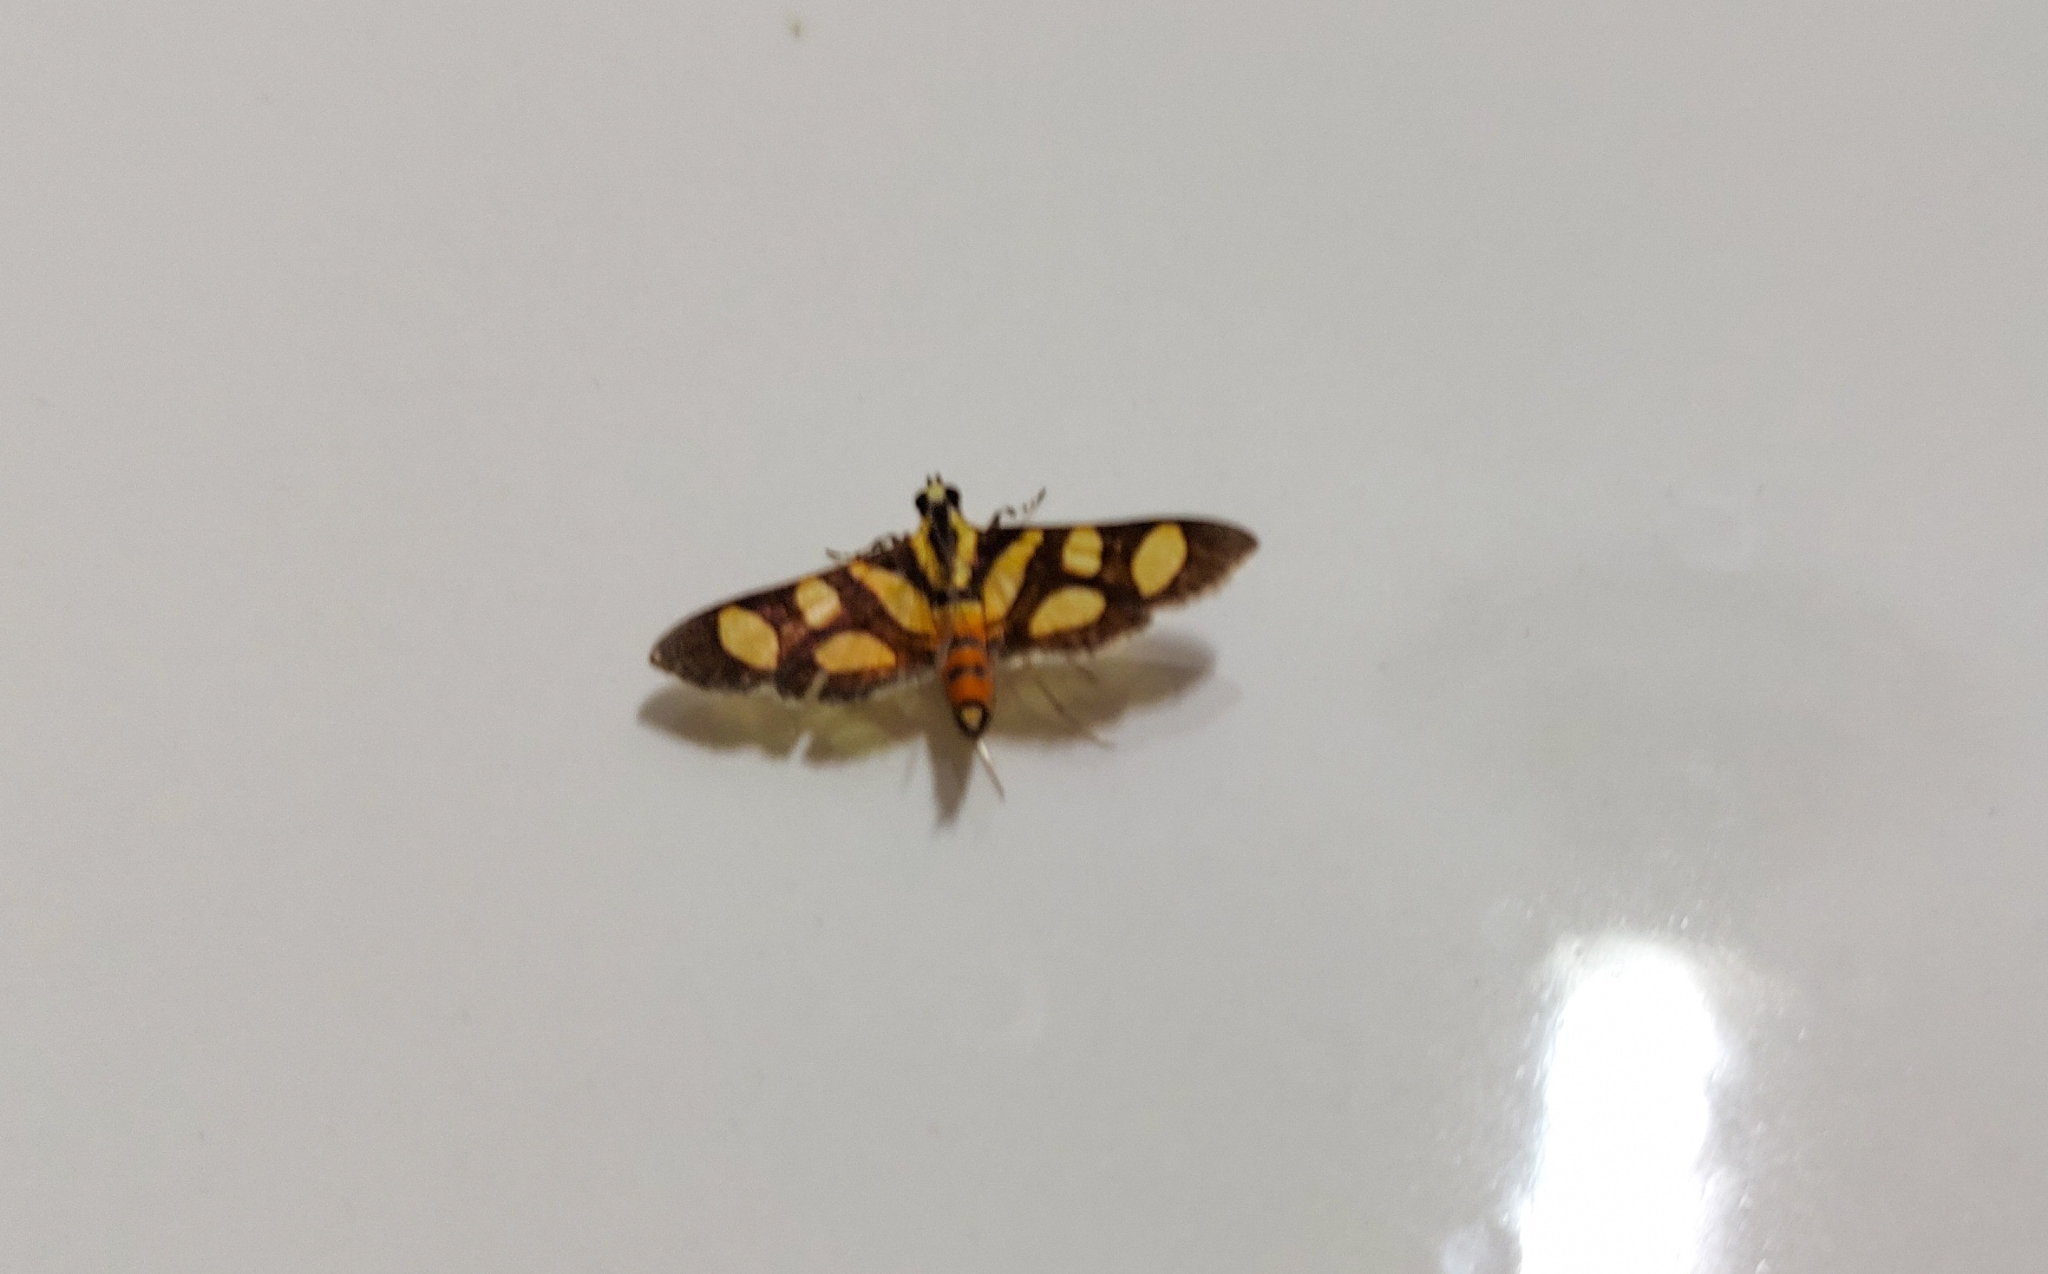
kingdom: Animalia
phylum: Arthropoda
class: Insecta
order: Lepidoptera
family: Crambidae
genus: Syngamia
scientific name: Syngamia florella
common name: Orange-spotted flower moth
